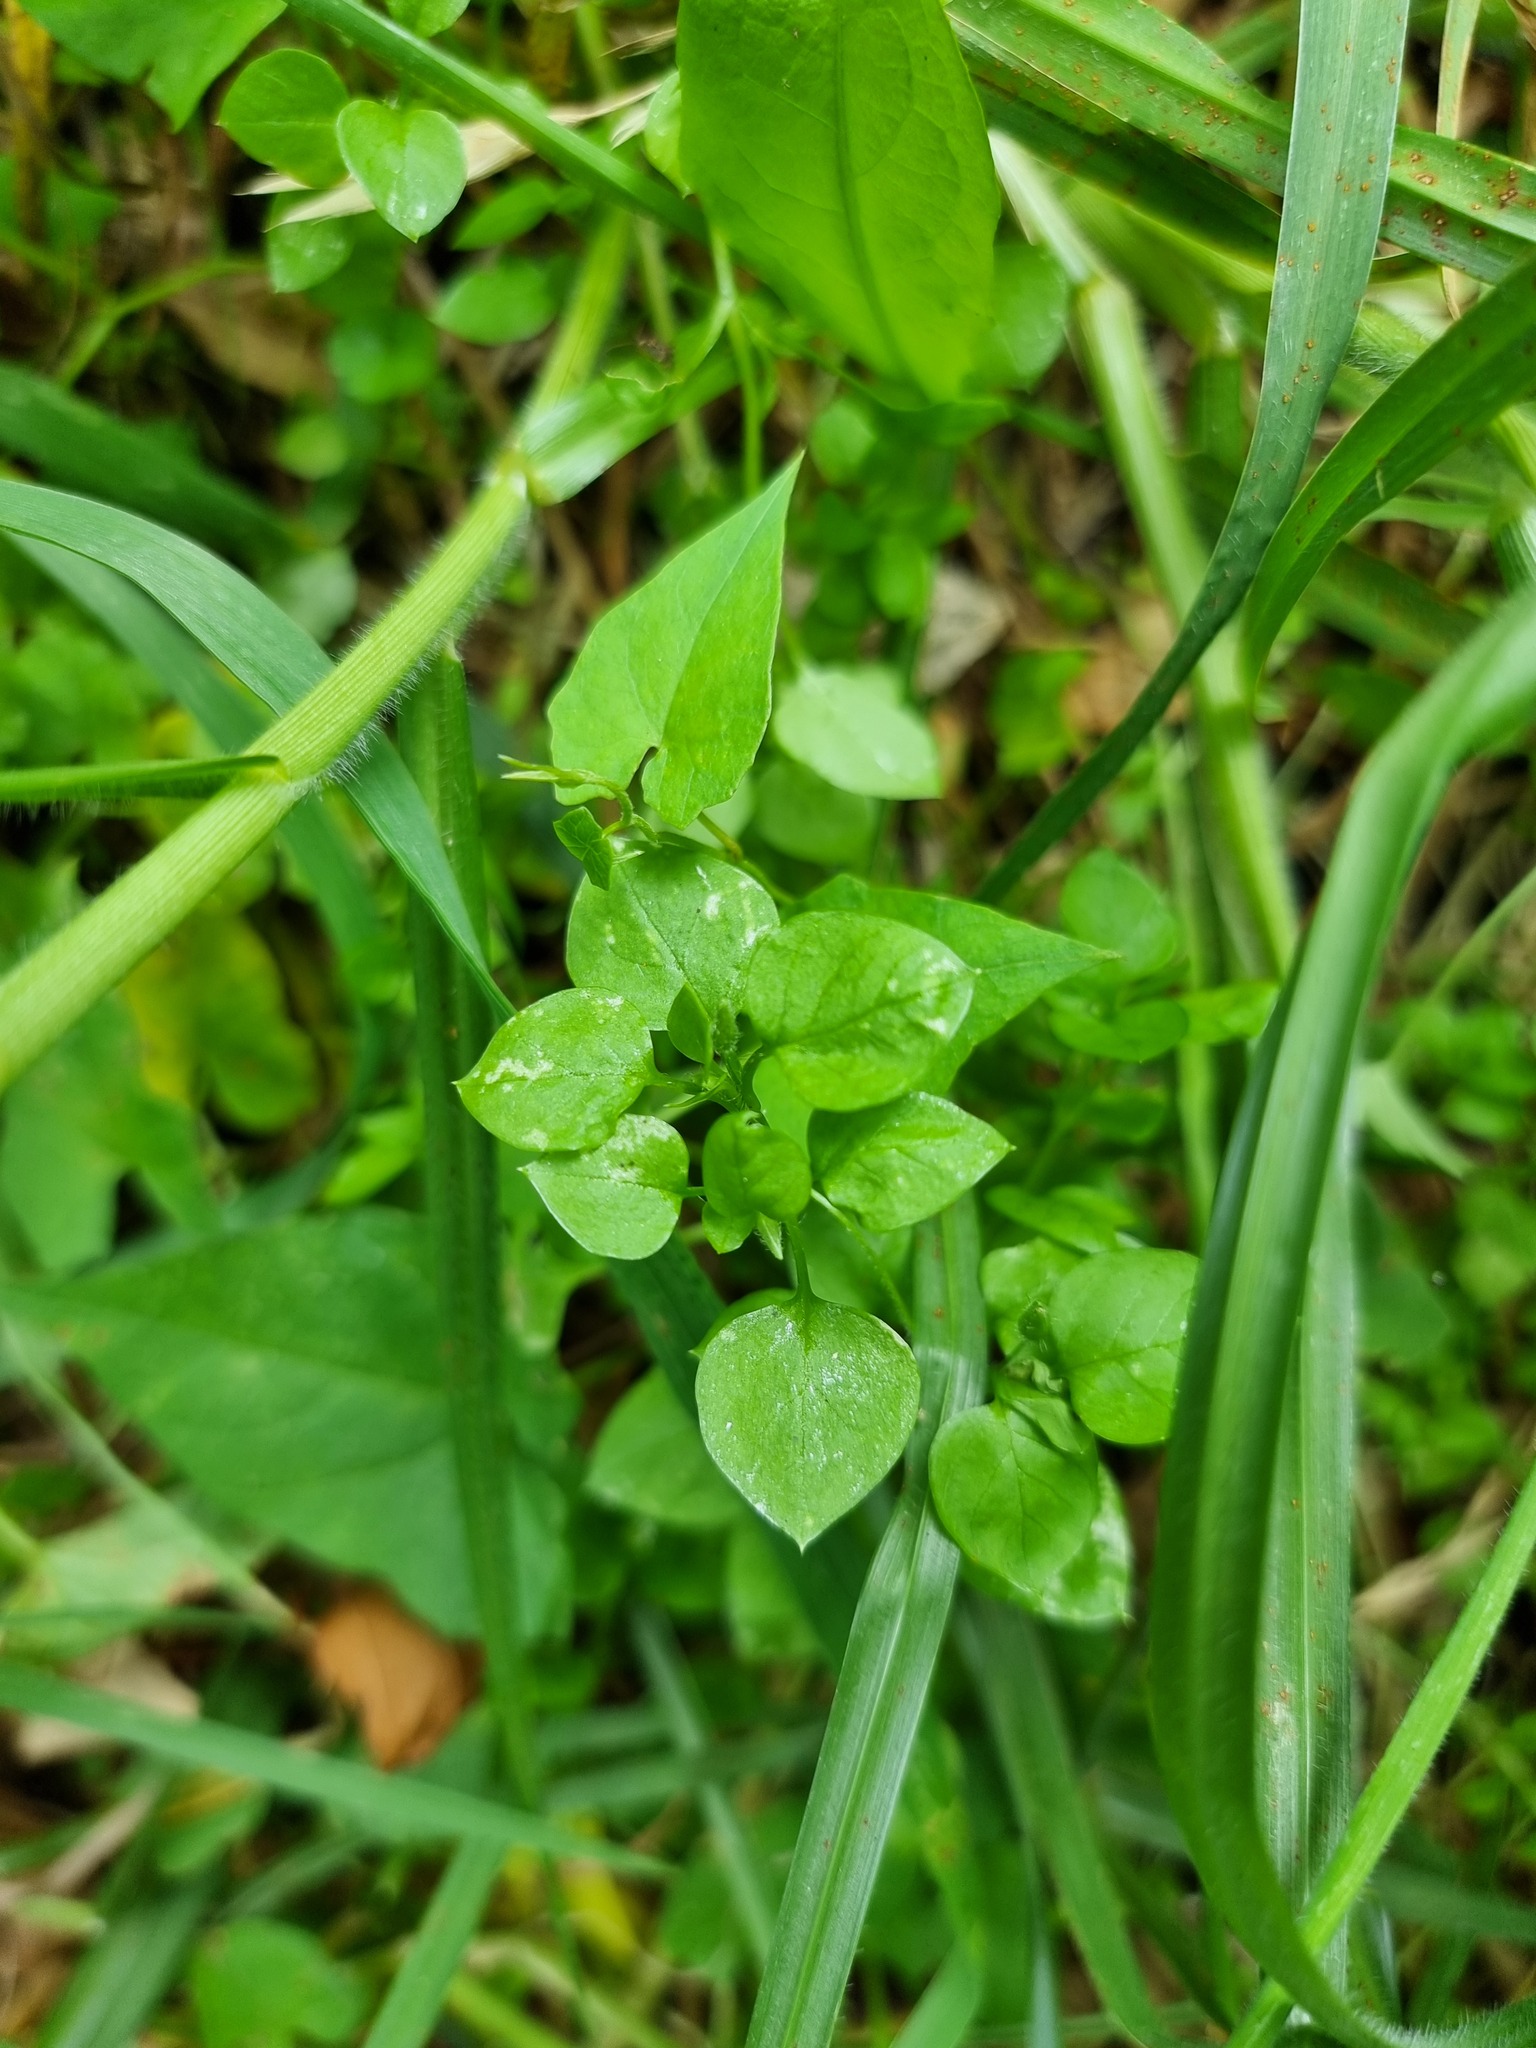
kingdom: Plantae
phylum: Tracheophyta
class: Magnoliopsida
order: Caryophyllales
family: Caryophyllaceae
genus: Stellaria
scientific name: Stellaria media
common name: Common chickweed
